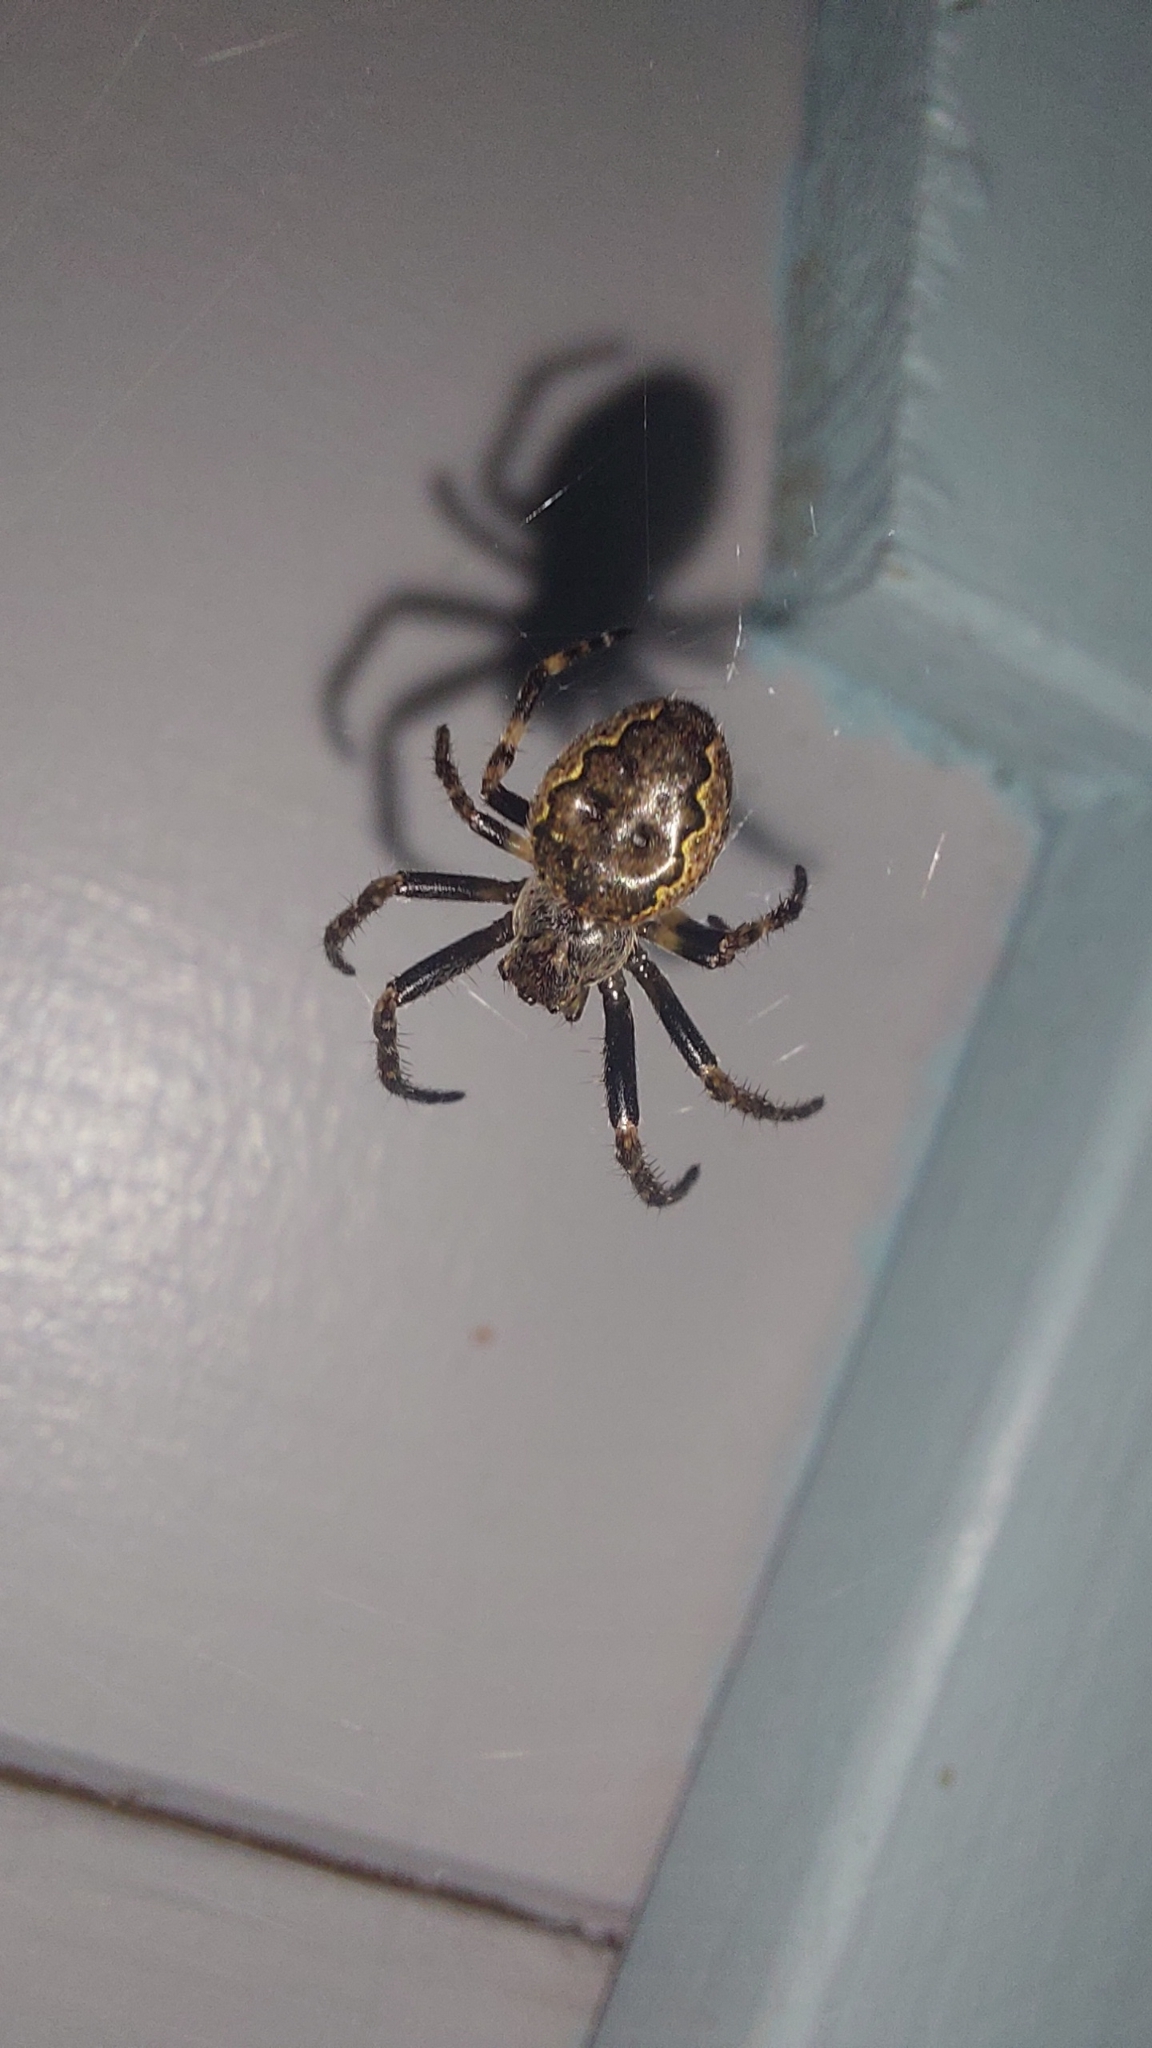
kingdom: Animalia
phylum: Arthropoda
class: Arachnida
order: Araneae
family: Araneidae
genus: Nuctenea
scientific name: Nuctenea umbratica
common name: Toad spider
